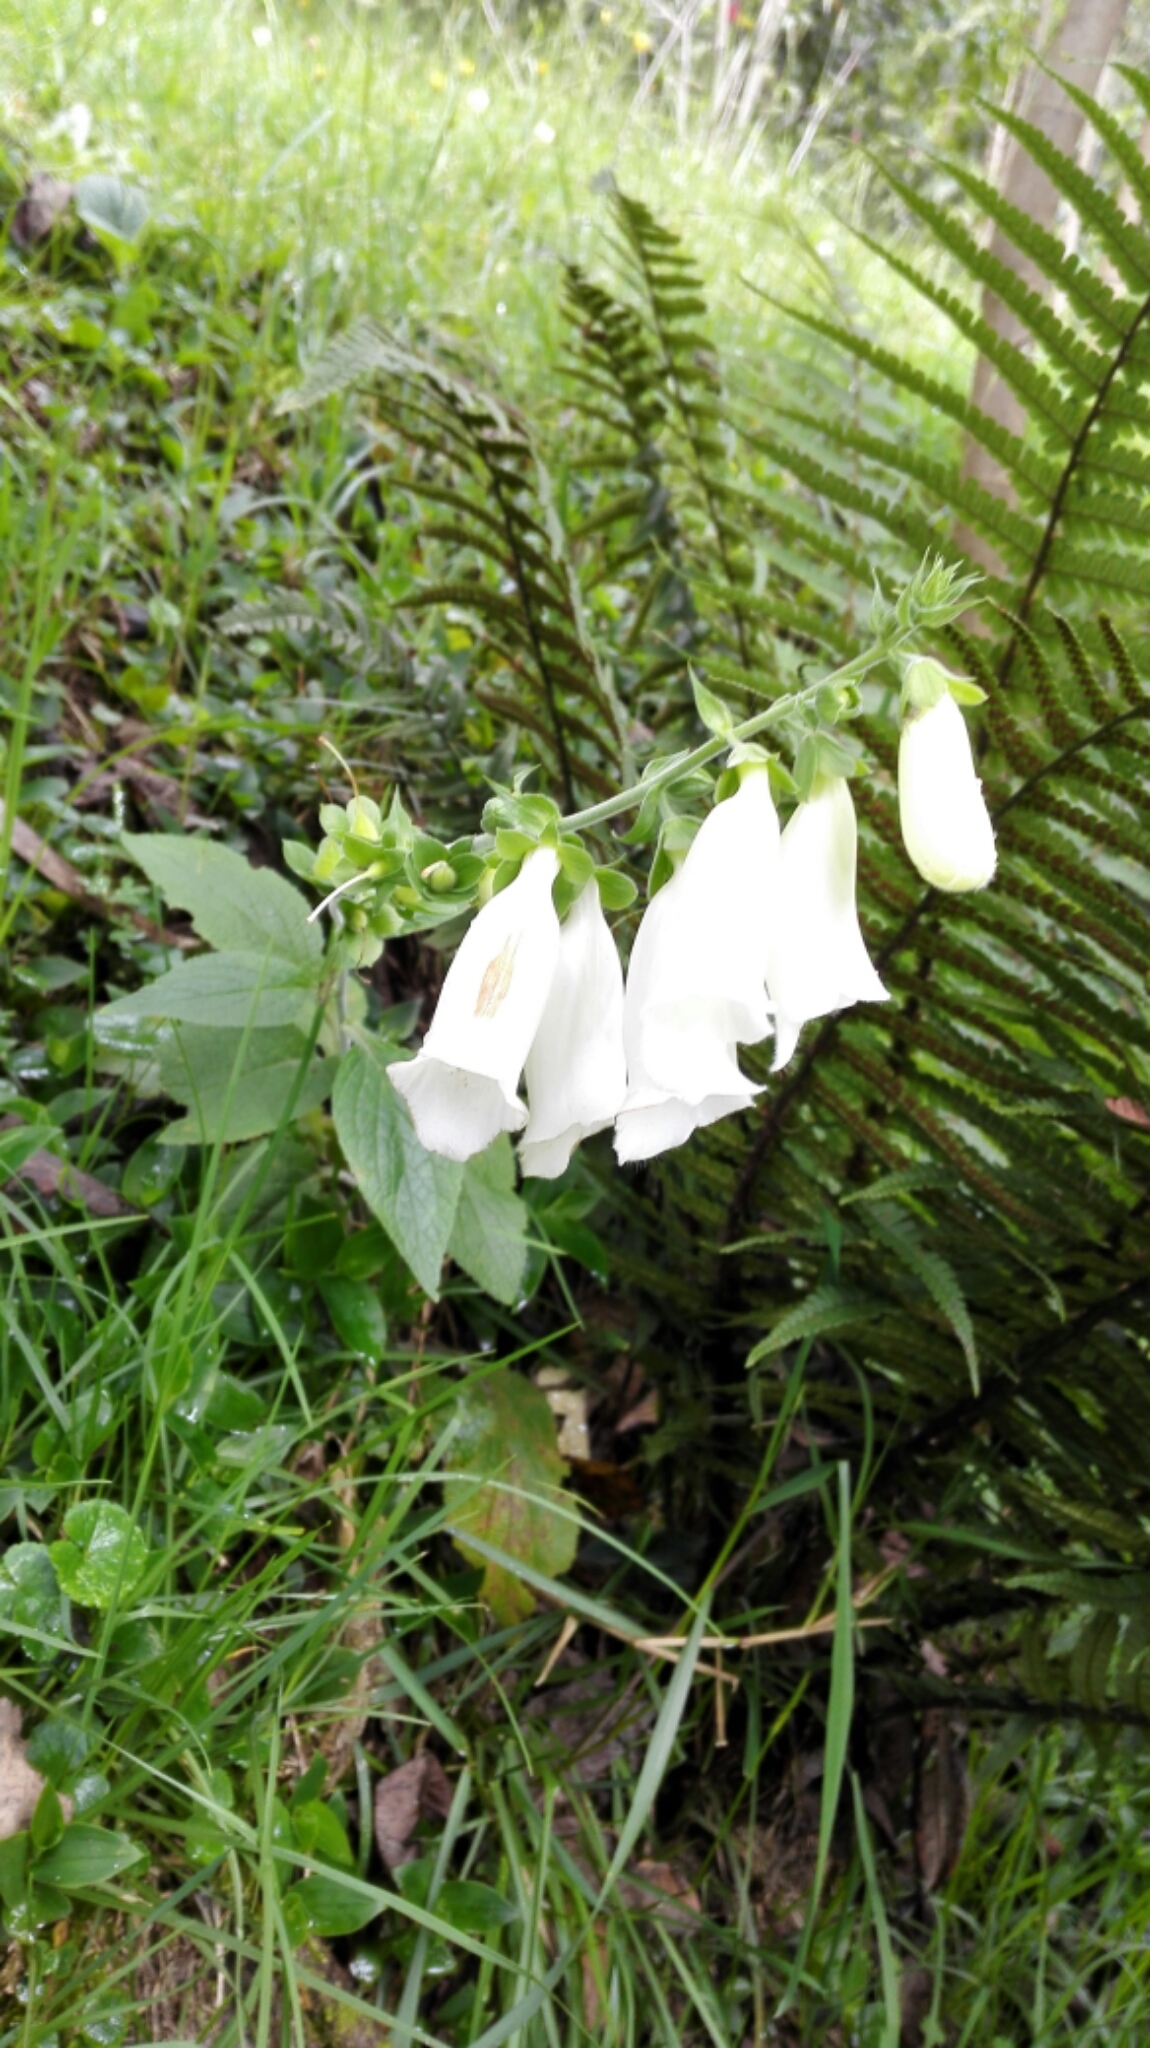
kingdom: Plantae
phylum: Tracheophyta
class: Magnoliopsida
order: Lamiales
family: Plantaginaceae
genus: Digitalis
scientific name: Digitalis purpurea
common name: Foxglove
